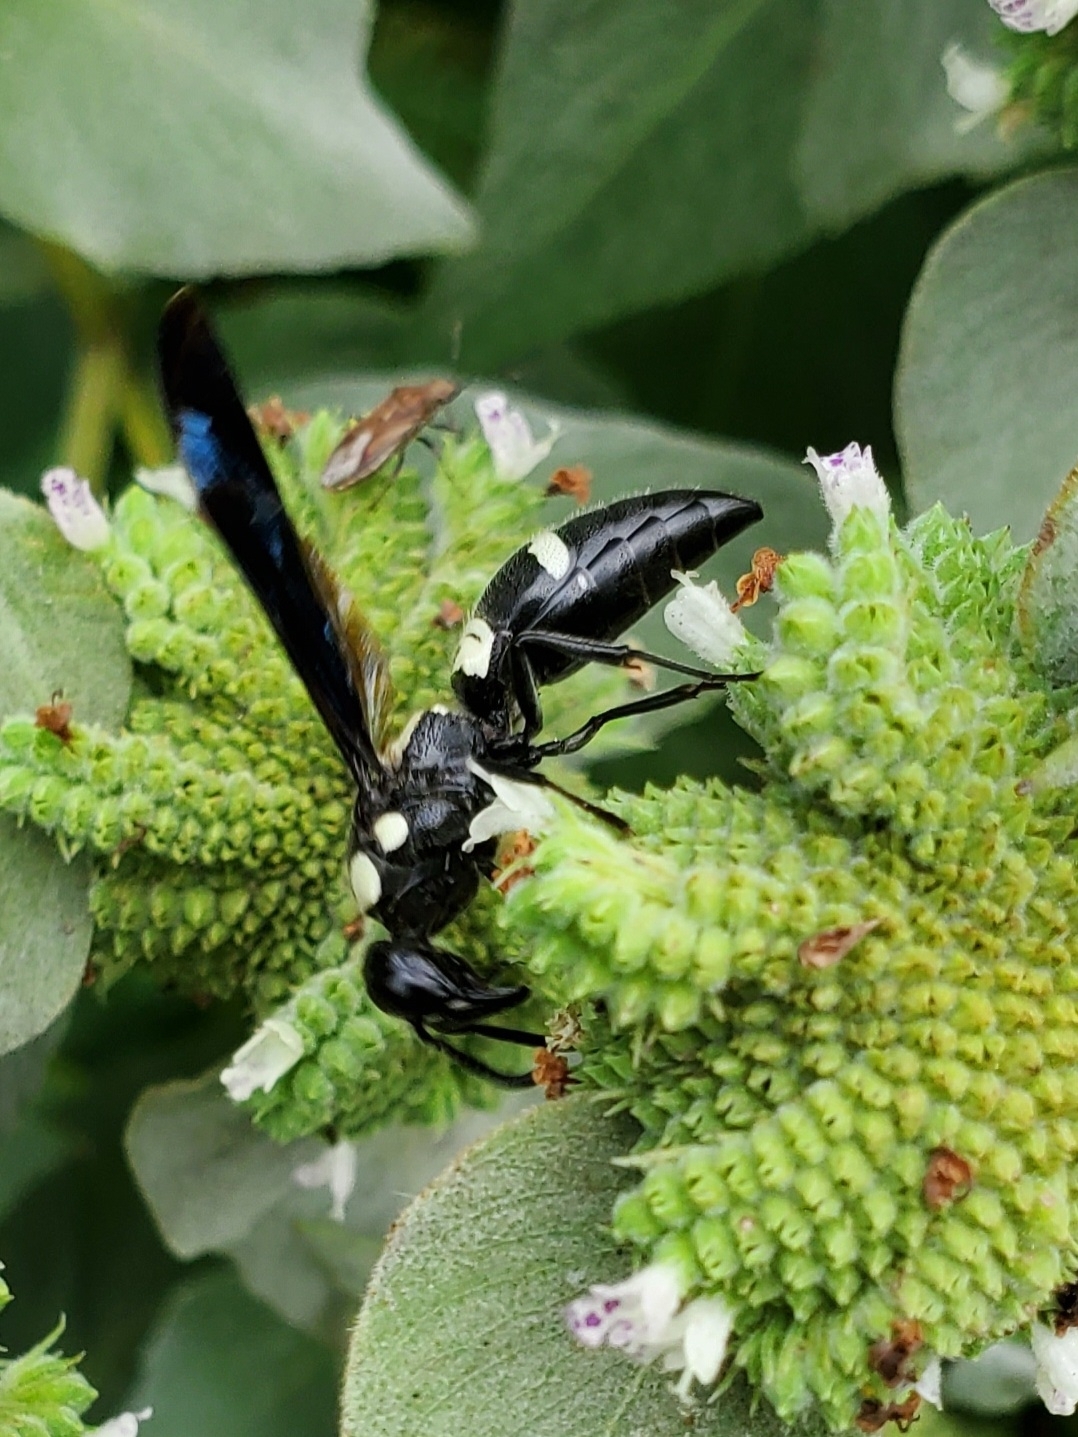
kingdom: Animalia
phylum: Arthropoda
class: Insecta
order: Hymenoptera
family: Eumenidae
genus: Pseudodynerus
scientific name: Pseudodynerus quadrisectus
